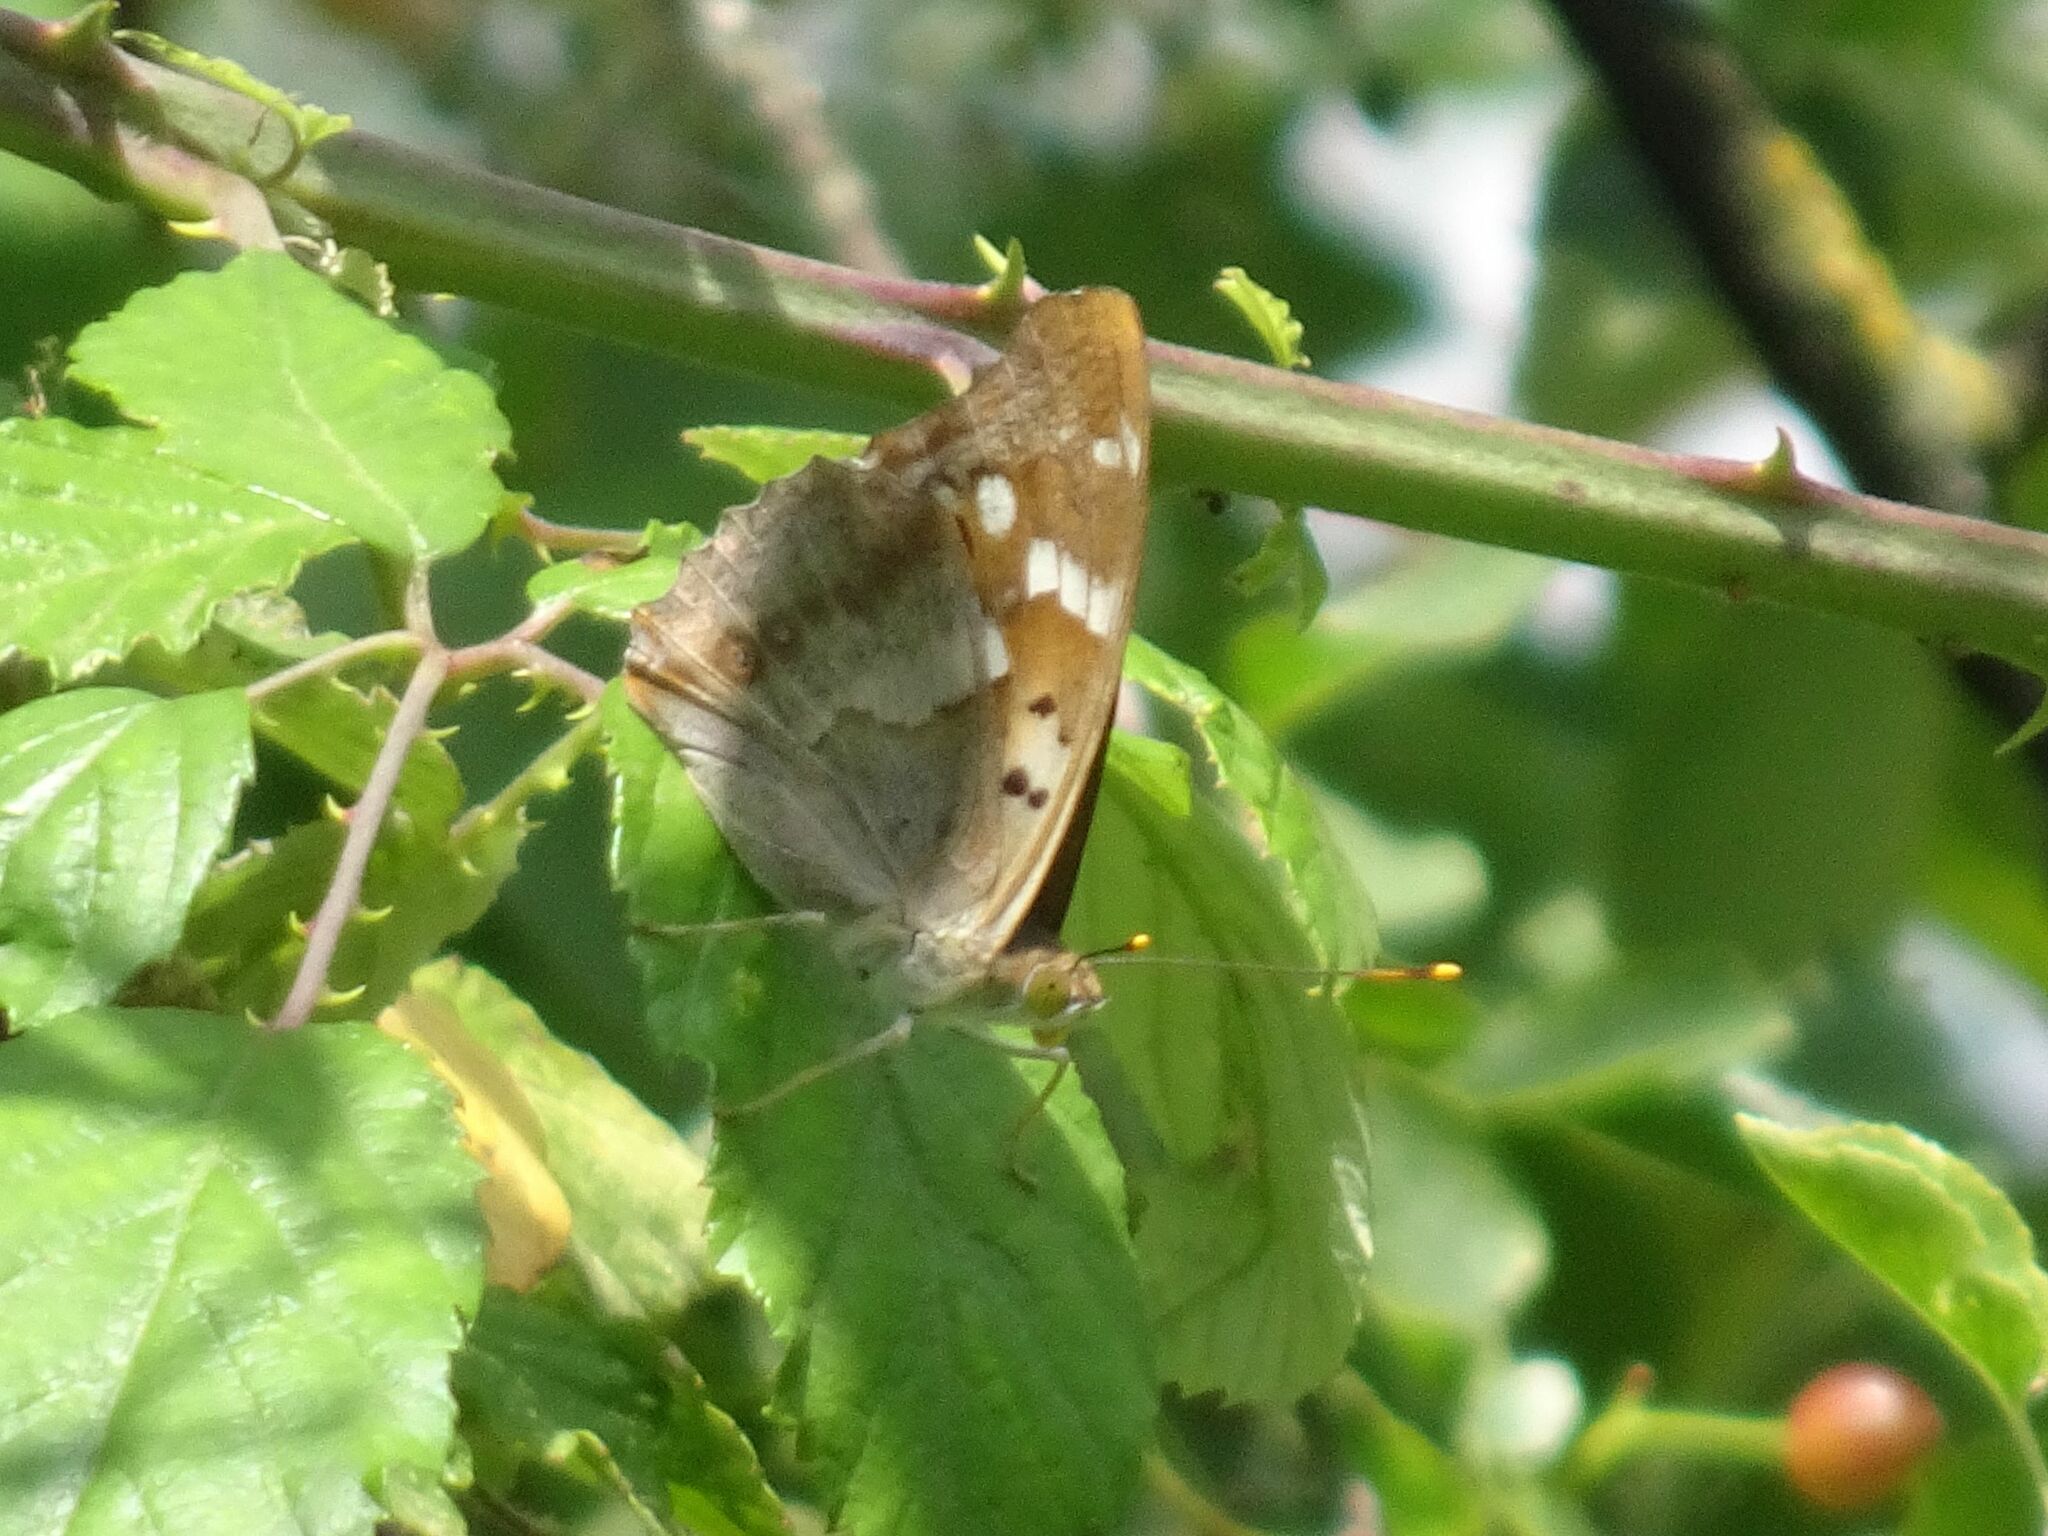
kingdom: Animalia
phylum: Arthropoda
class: Insecta
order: Lepidoptera
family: Nymphalidae
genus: Apatura
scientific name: Apatura ilia
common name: Lesser purple emperor
